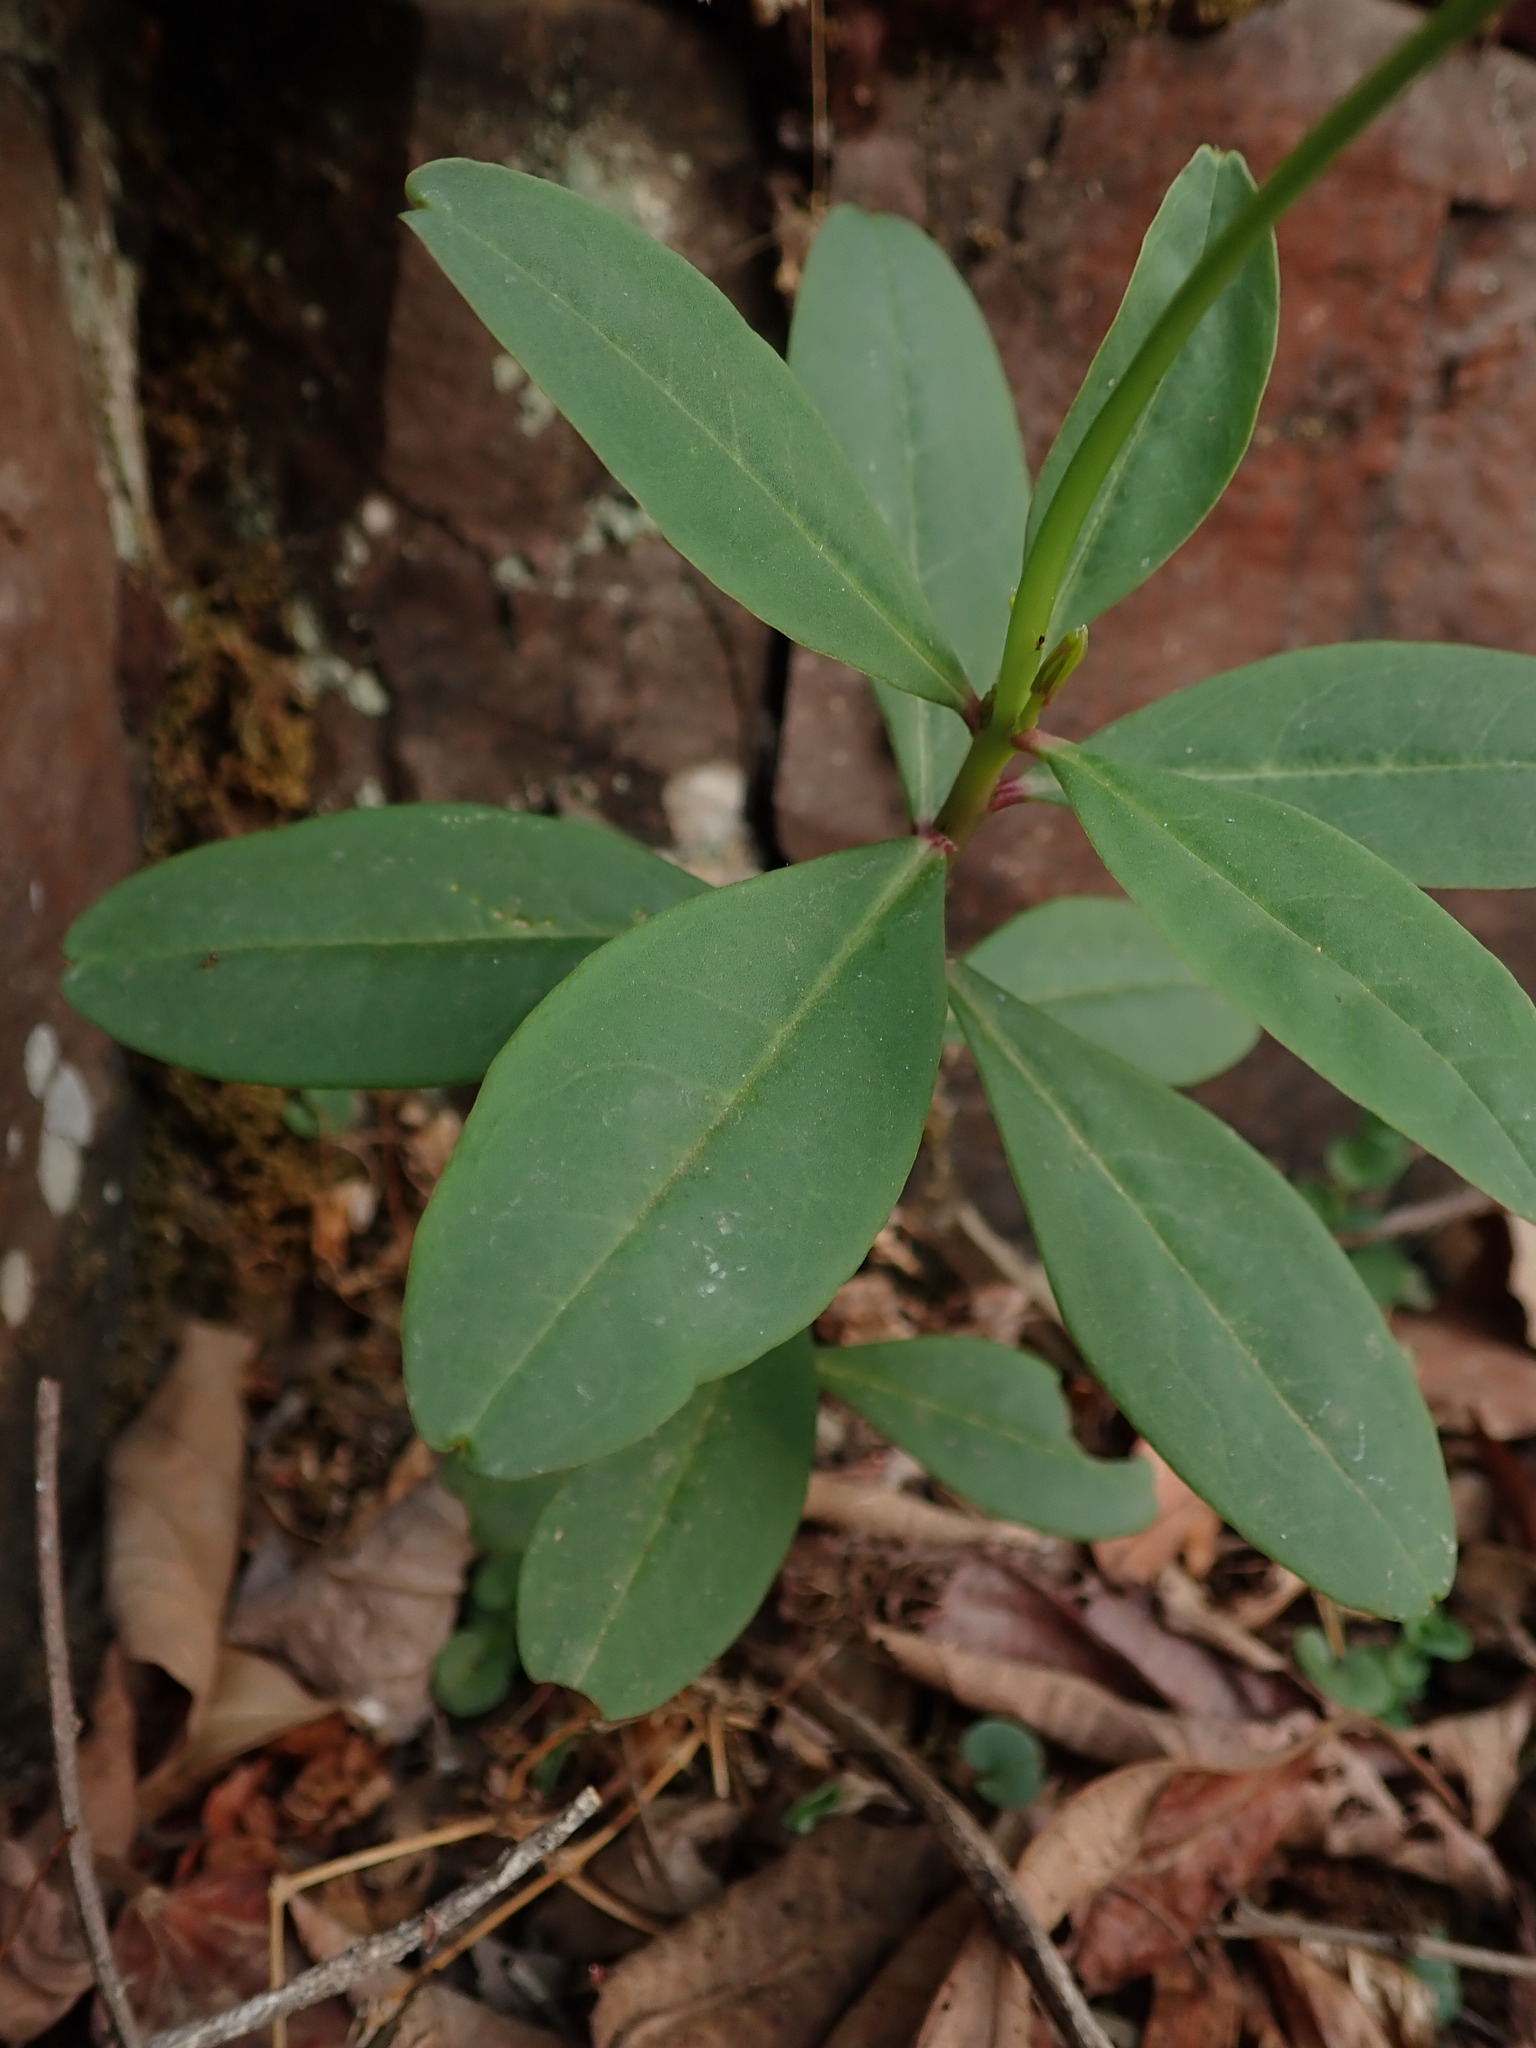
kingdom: Plantae
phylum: Tracheophyta
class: Magnoliopsida
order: Caryophyllales
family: Talinaceae
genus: Talinum
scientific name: Talinum fruticosum
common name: Verdolaga-francesa
